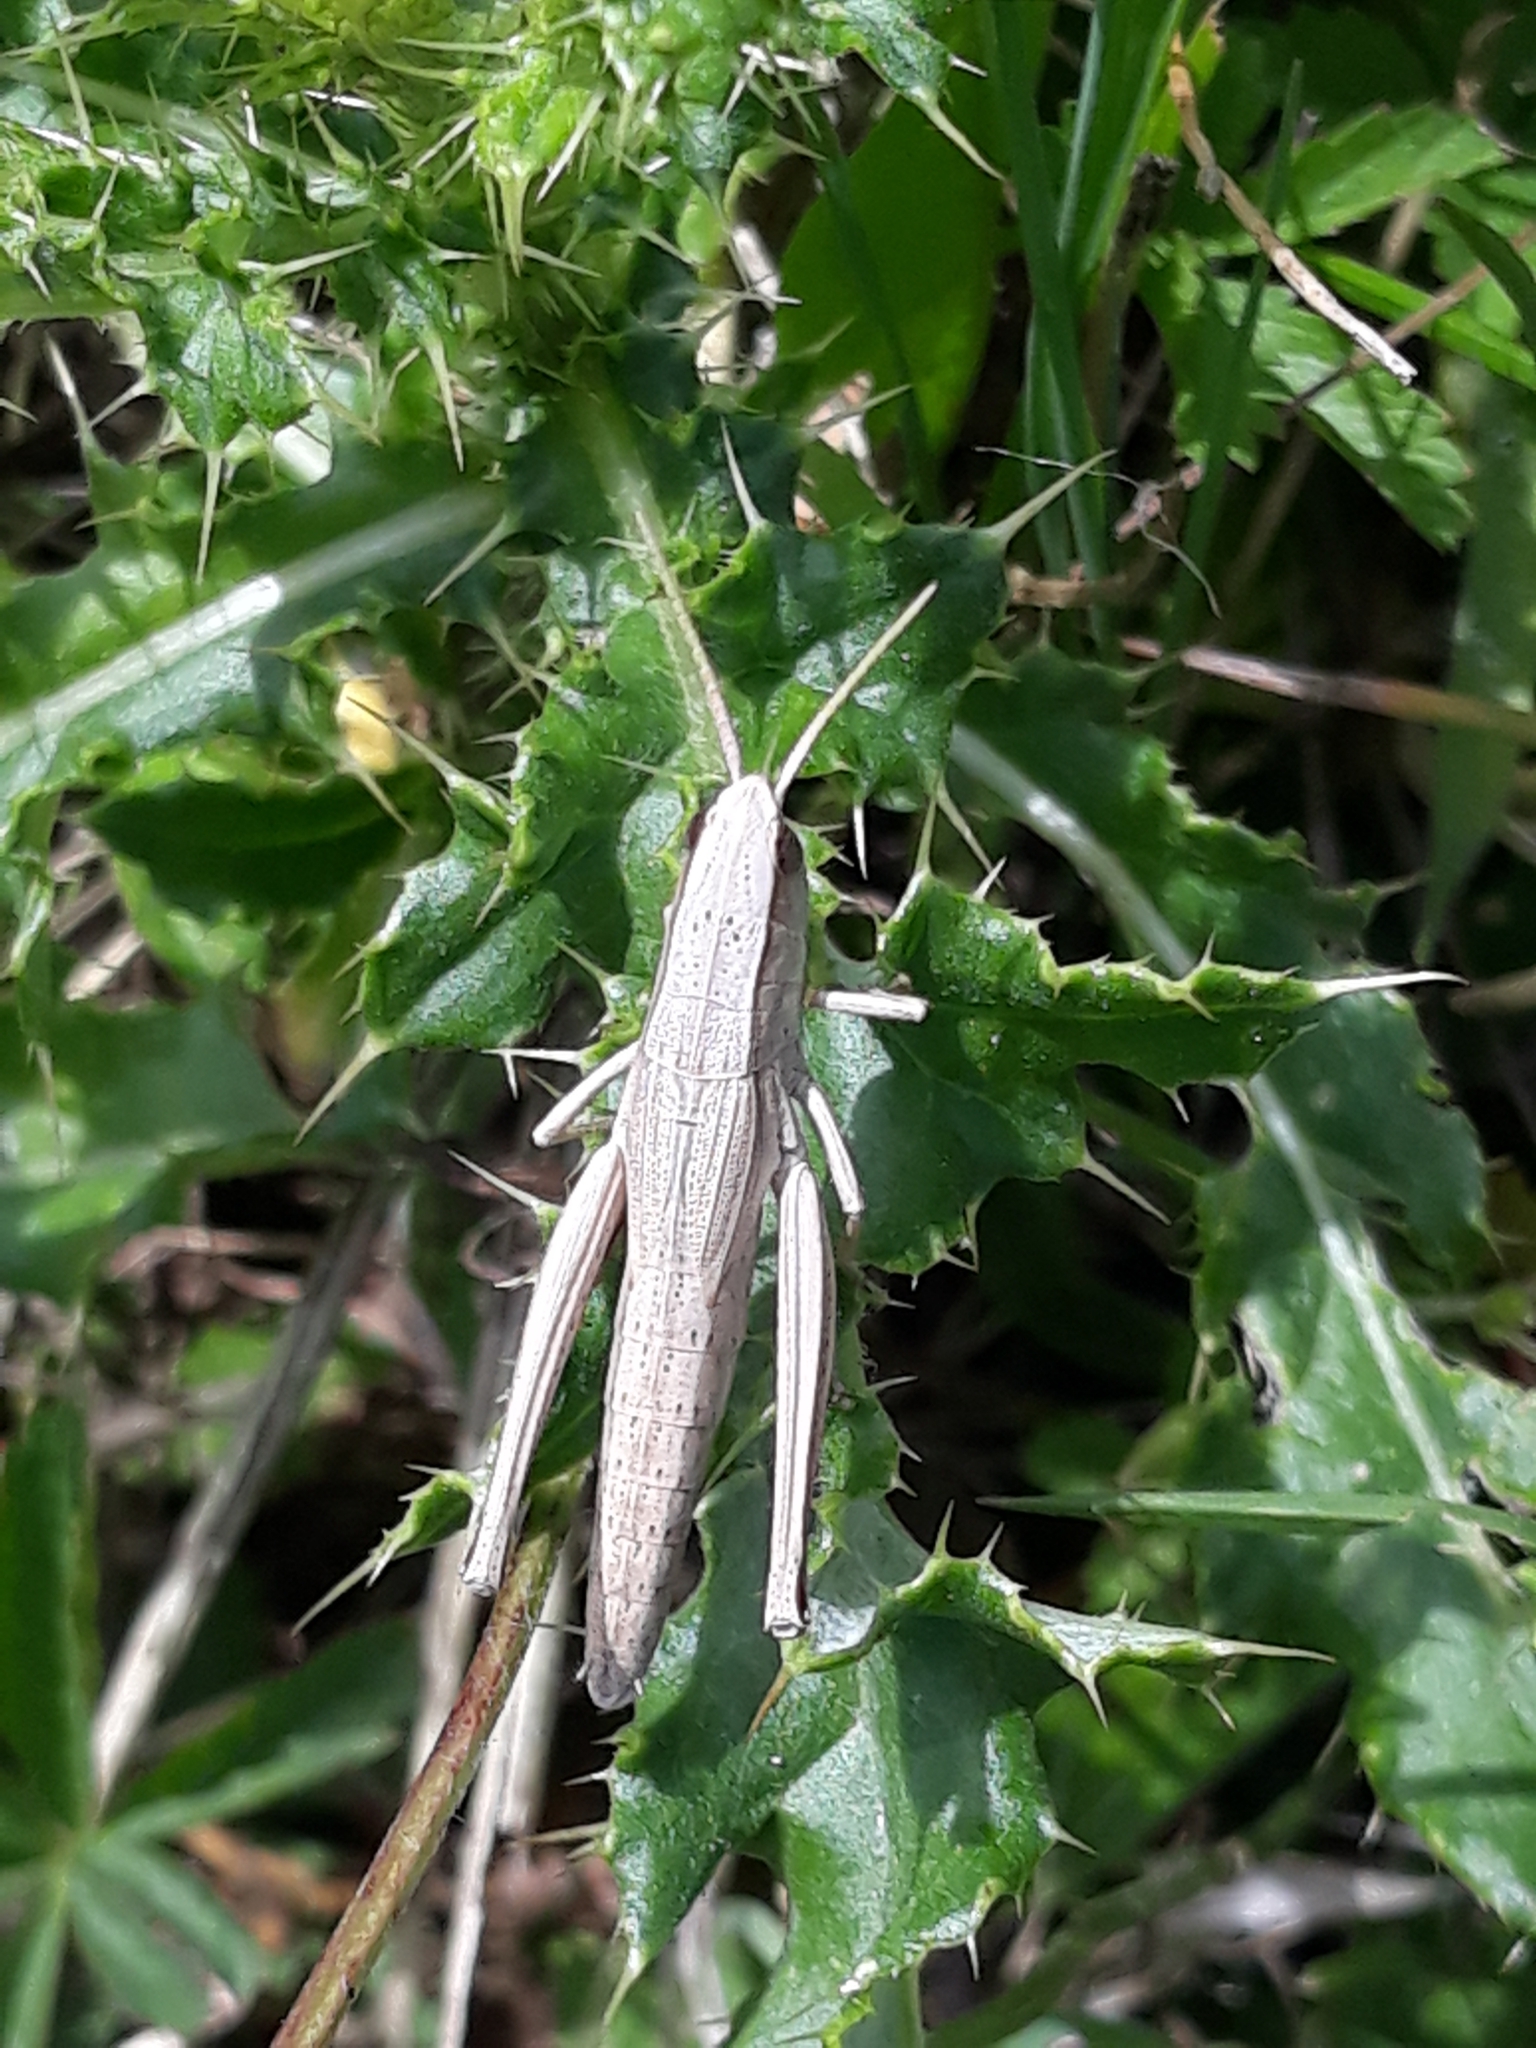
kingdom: Animalia
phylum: Arthropoda
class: Insecta
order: Orthoptera
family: Acrididae
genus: Chrysochraon
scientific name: Chrysochraon dispar
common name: Large gold grasshopper
